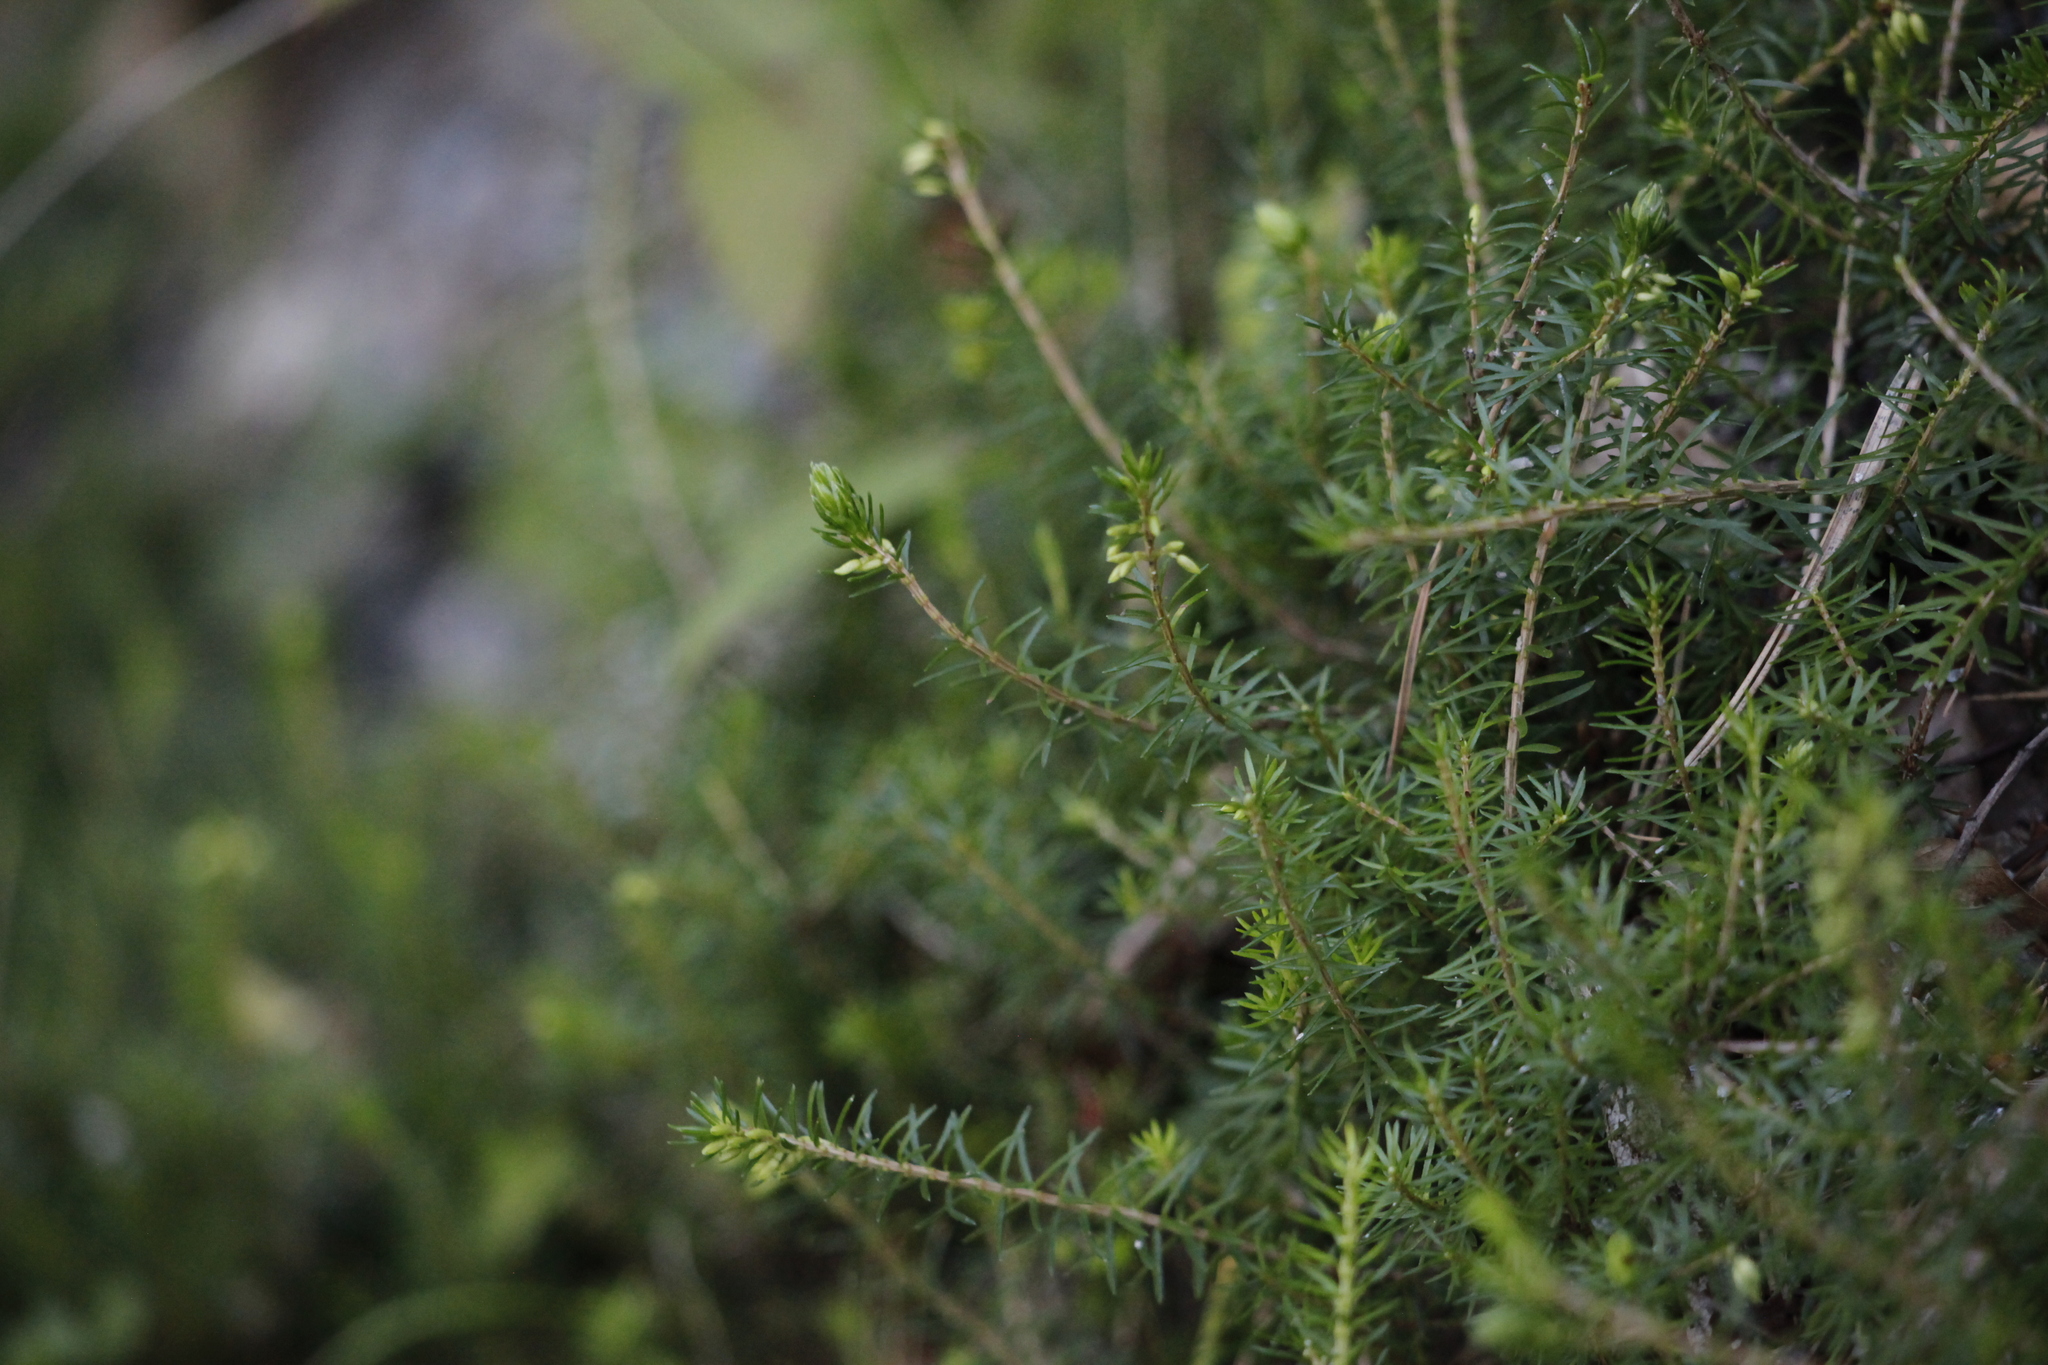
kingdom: Plantae
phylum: Tracheophyta
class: Magnoliopsida
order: Ericales
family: Ericaceae
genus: Erica
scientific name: Erica carnea
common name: Winter heath
